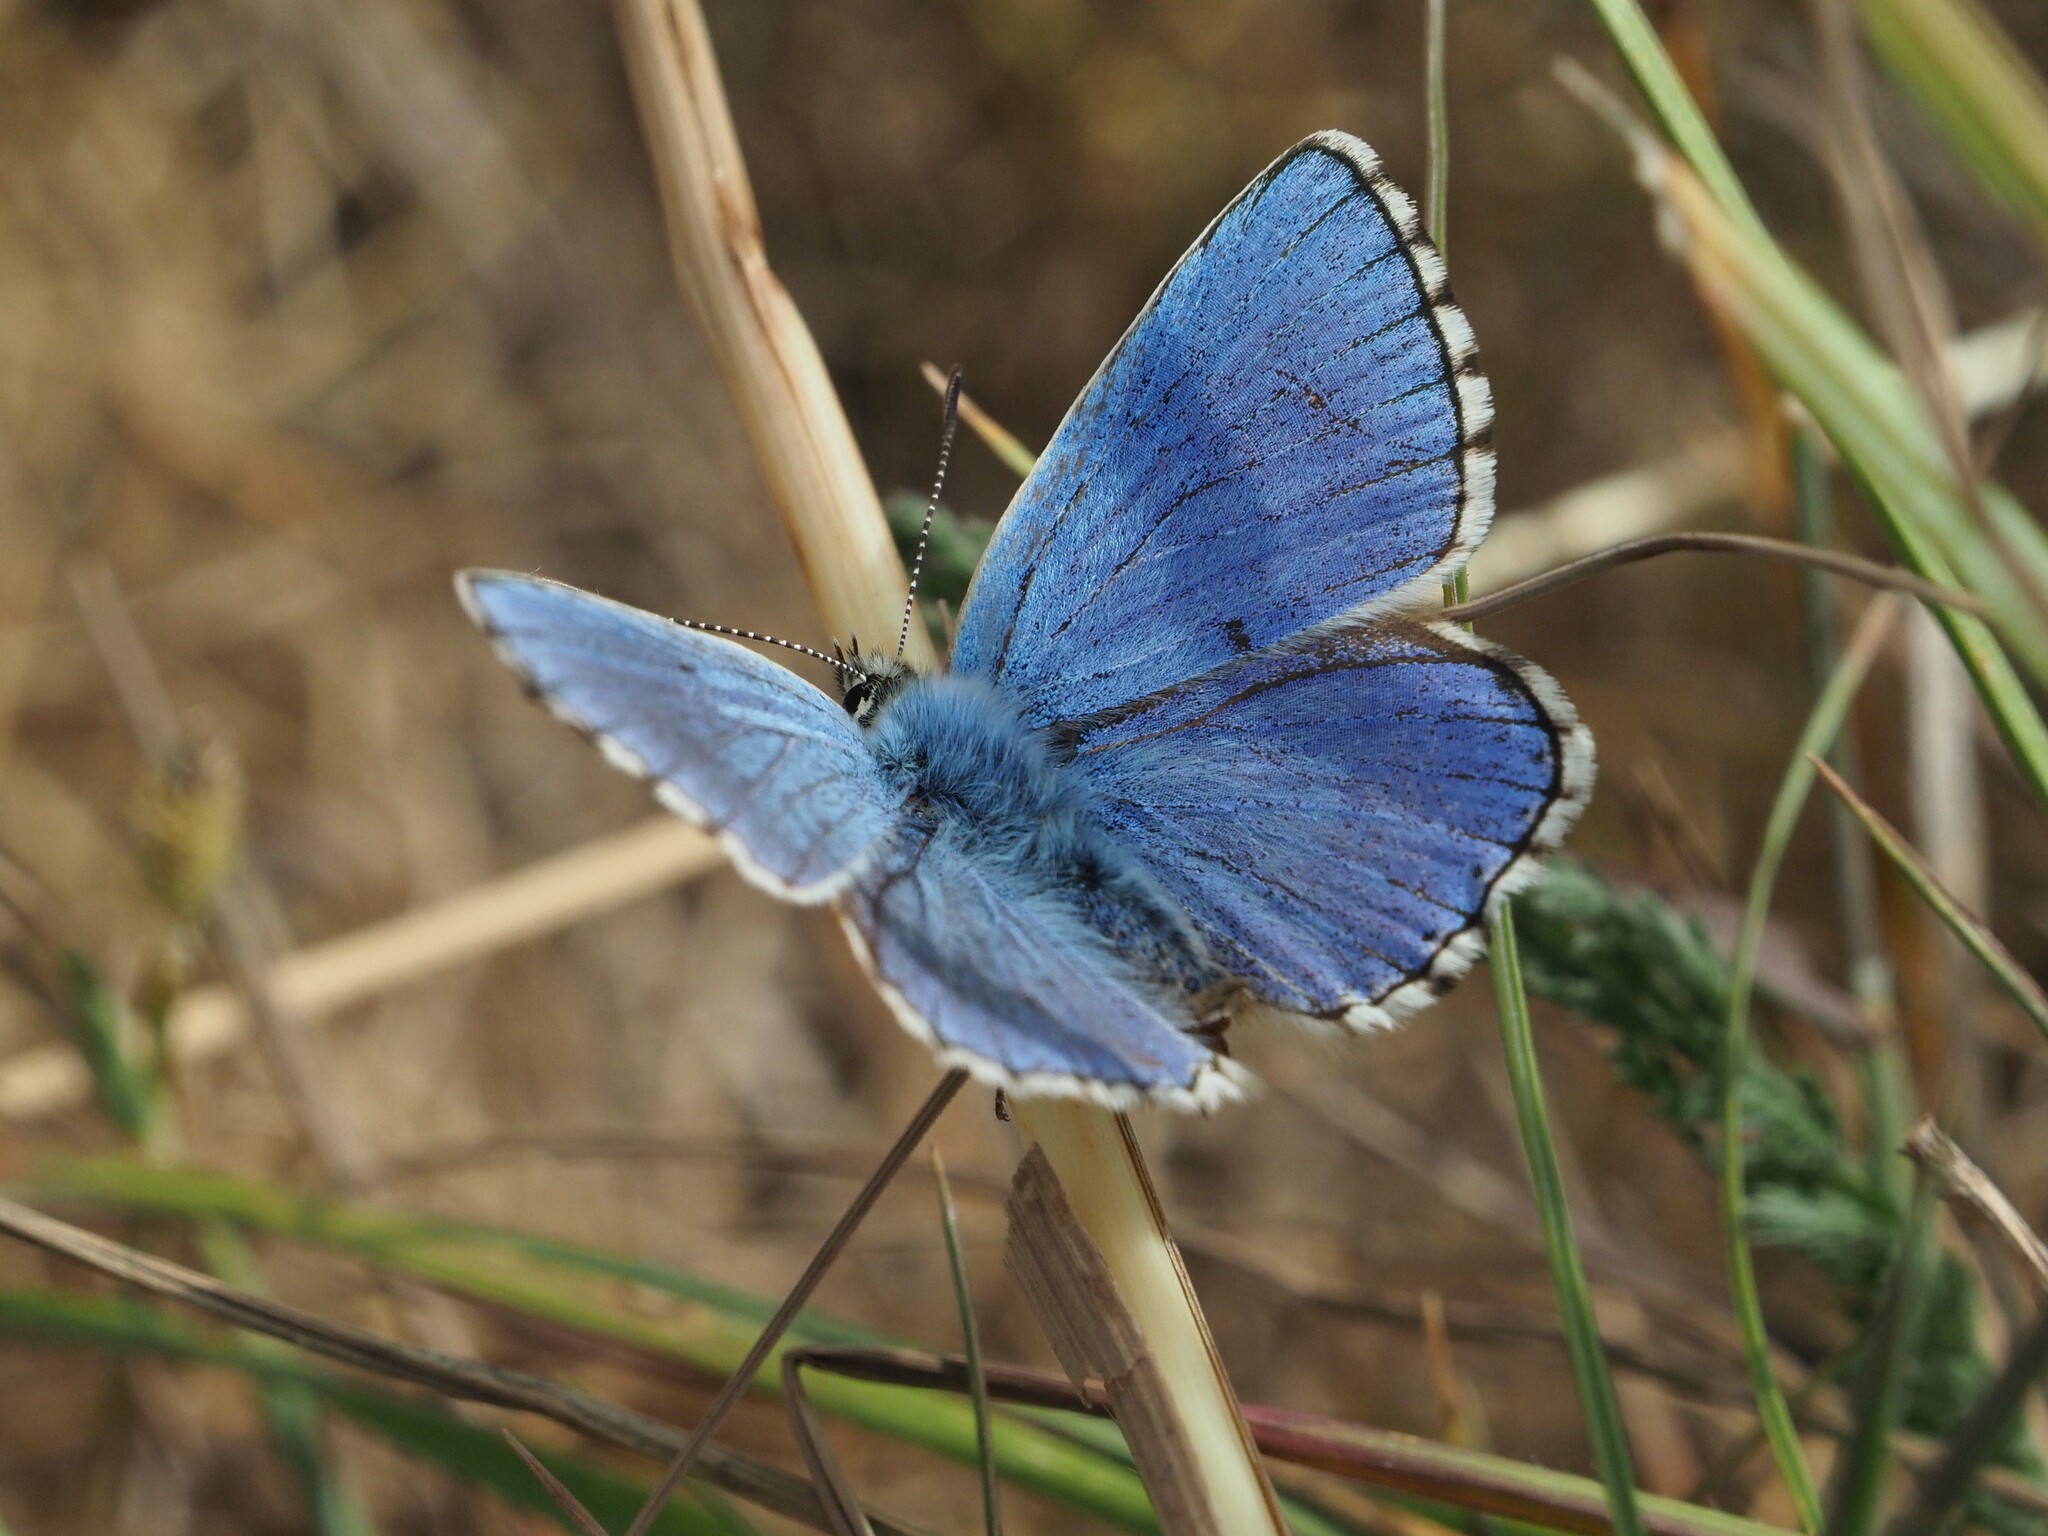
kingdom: Animalia
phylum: Arthropoda
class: Insecta
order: Lepidoptera
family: Lycaenidae
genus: Lysandra
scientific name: Lysandra bellargus
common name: Adonis blue
